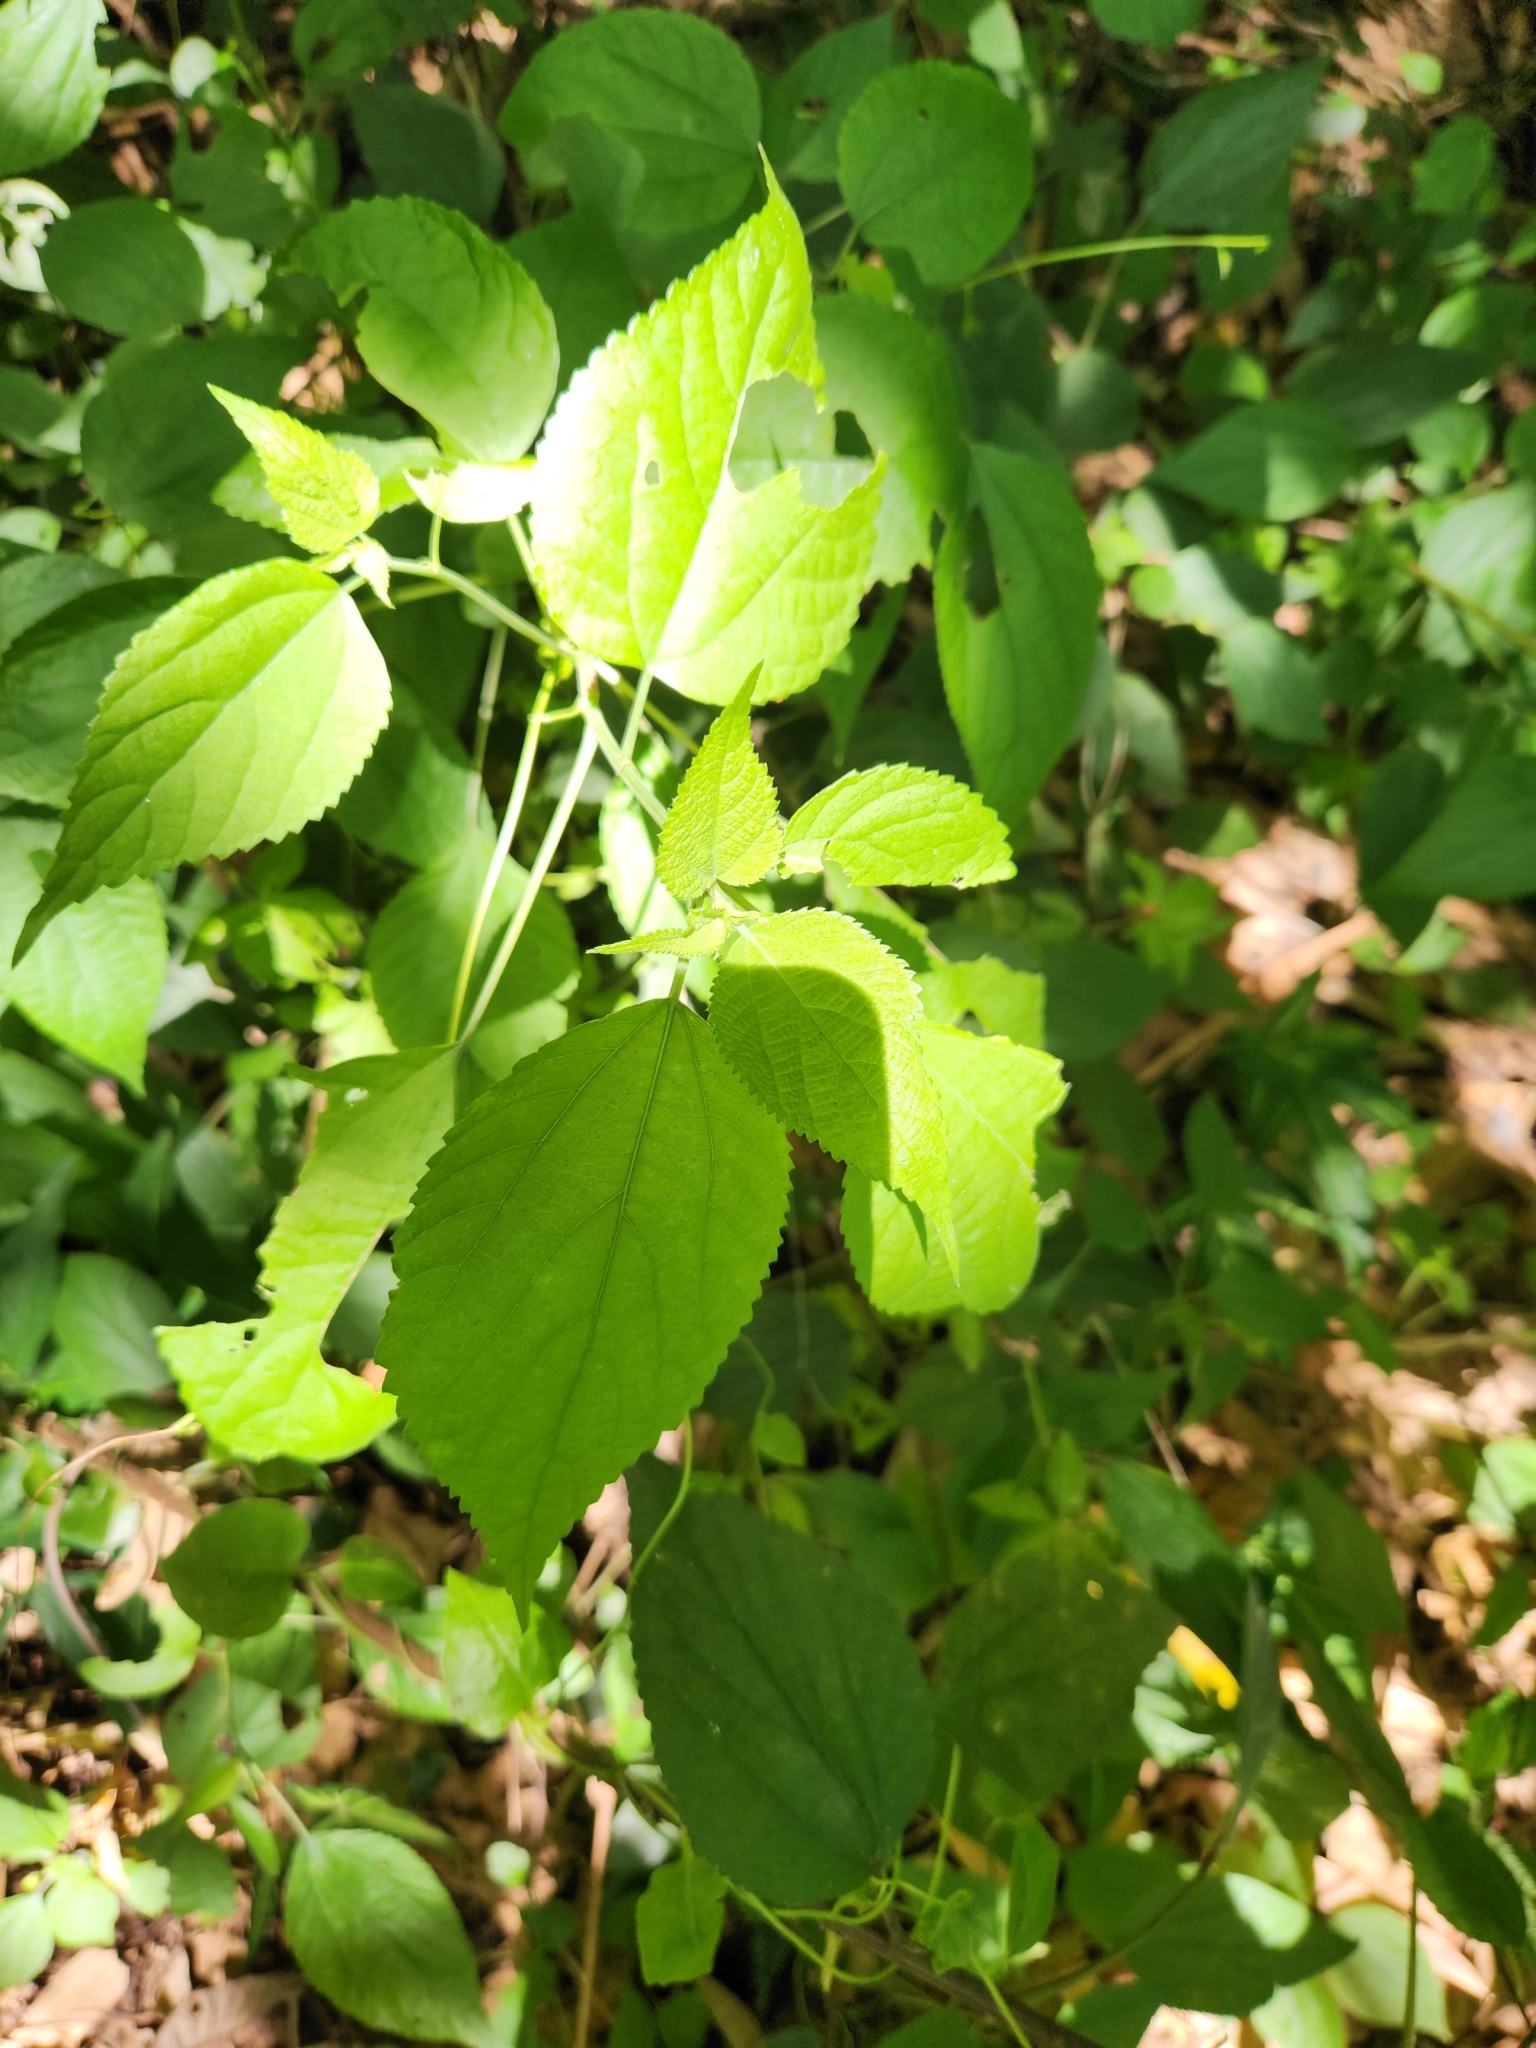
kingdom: Plantae
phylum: Tracheophyta
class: Magnoliopsida
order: Rosales
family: Urticaceae
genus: Boehmeria
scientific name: Boehmeria nivea
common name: Ramie chinese grass
